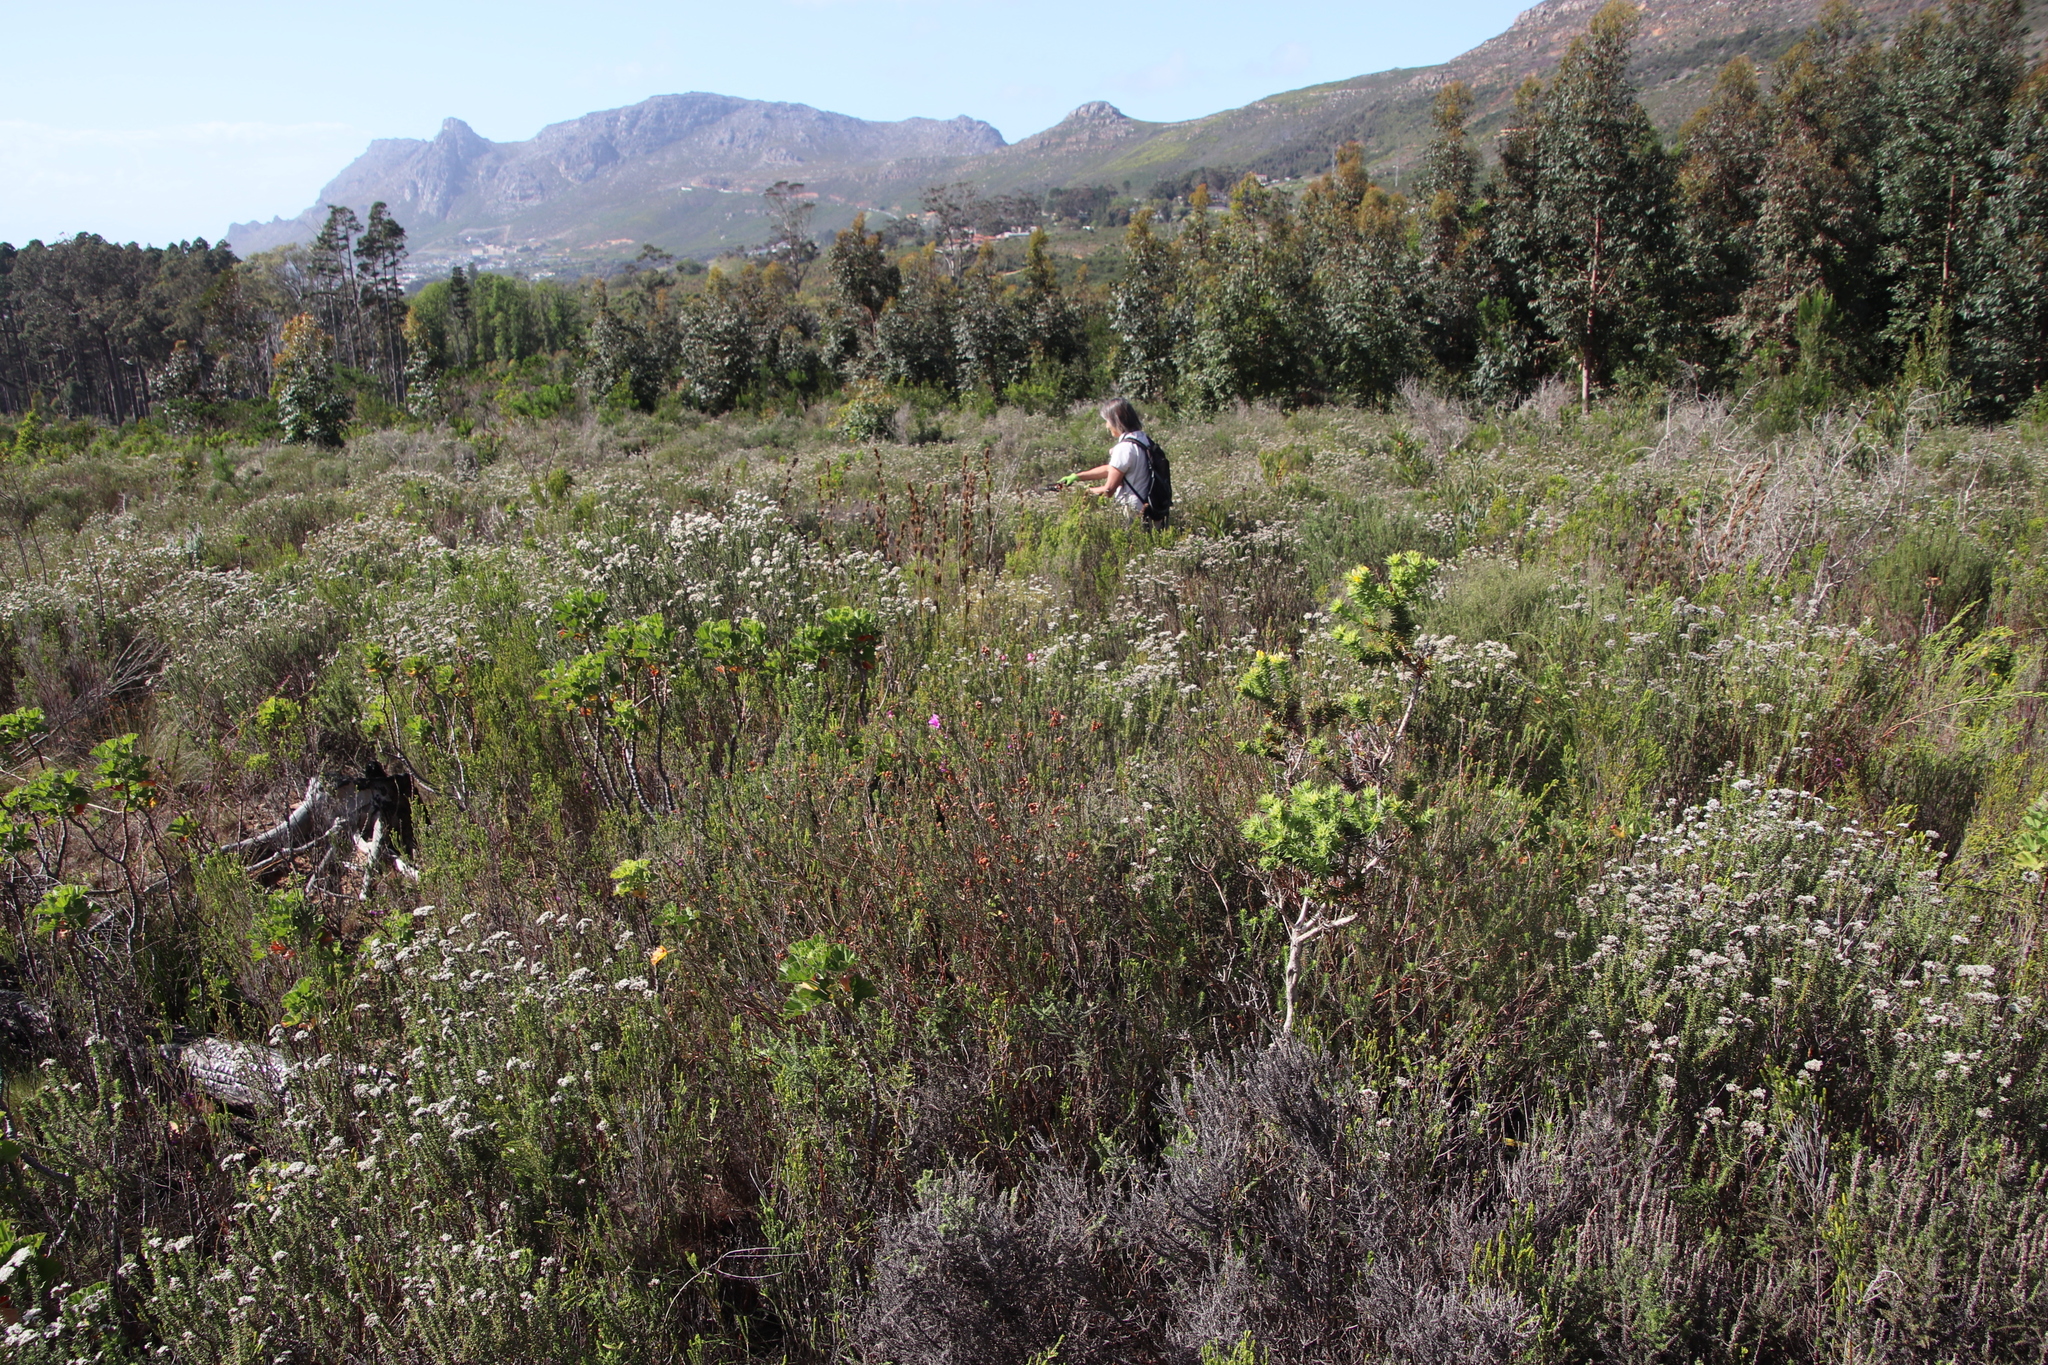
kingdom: Plantae
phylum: Tracheophyta
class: Magnoliopsida
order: Ericales
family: Ericaceae
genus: Erica
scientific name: Erica viscaria
